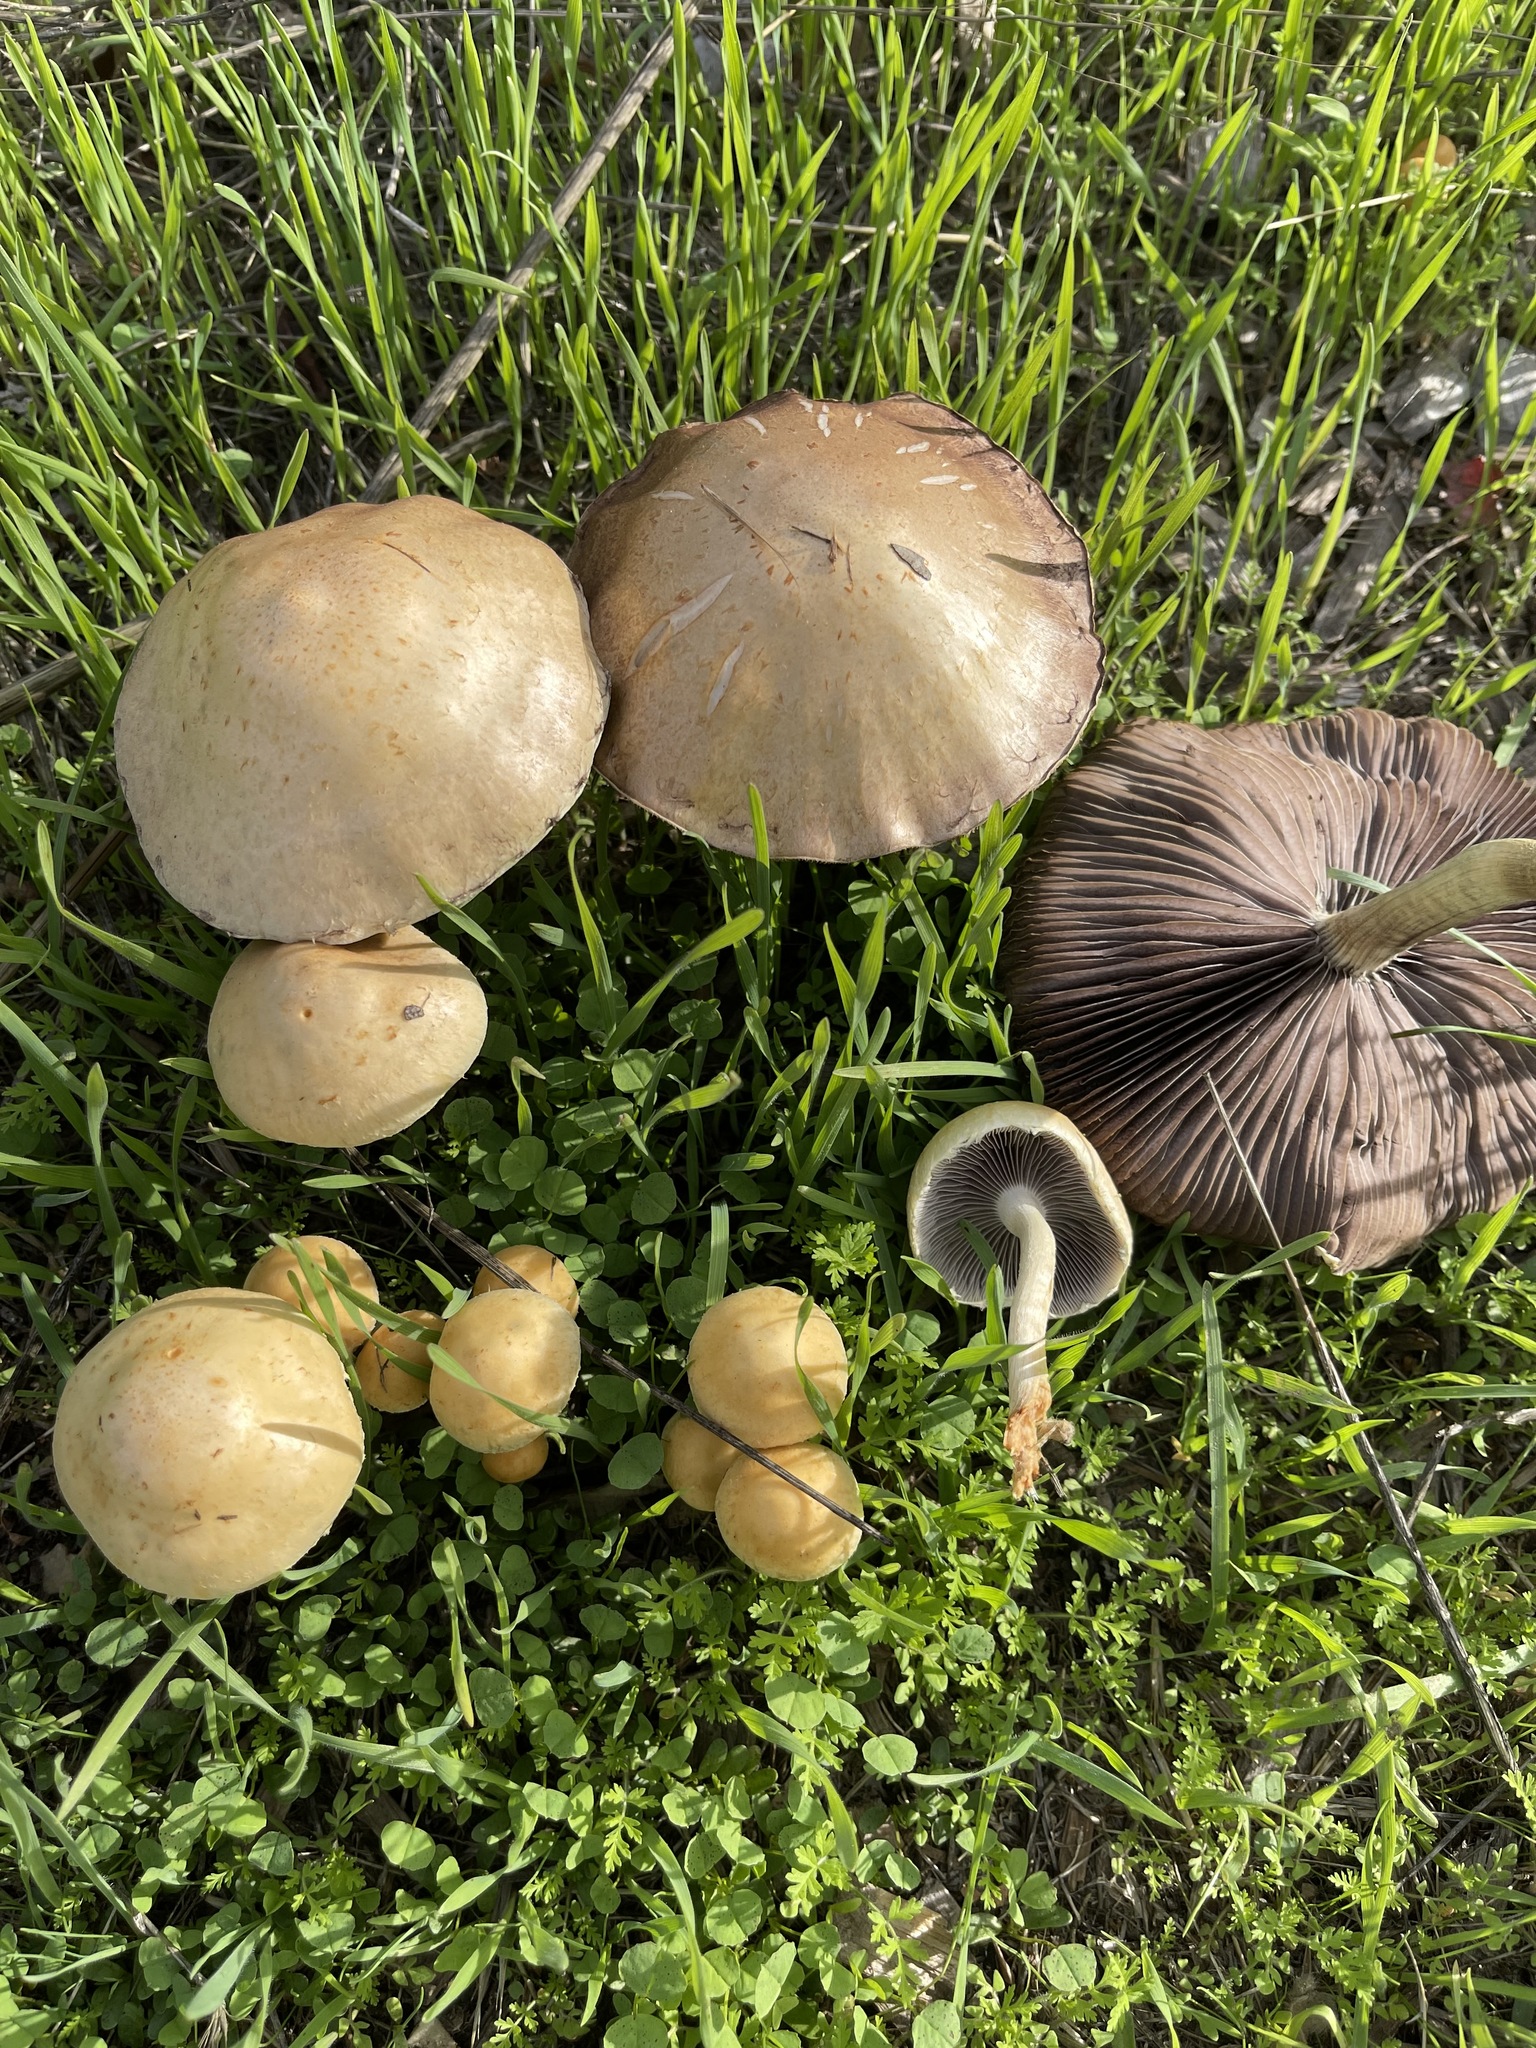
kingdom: Fungi
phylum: Basidiomycota
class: Agaricomycetes
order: Agaricales
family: Strophariaceae
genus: Leratiomyces
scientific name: Leratiomyces percevalii
